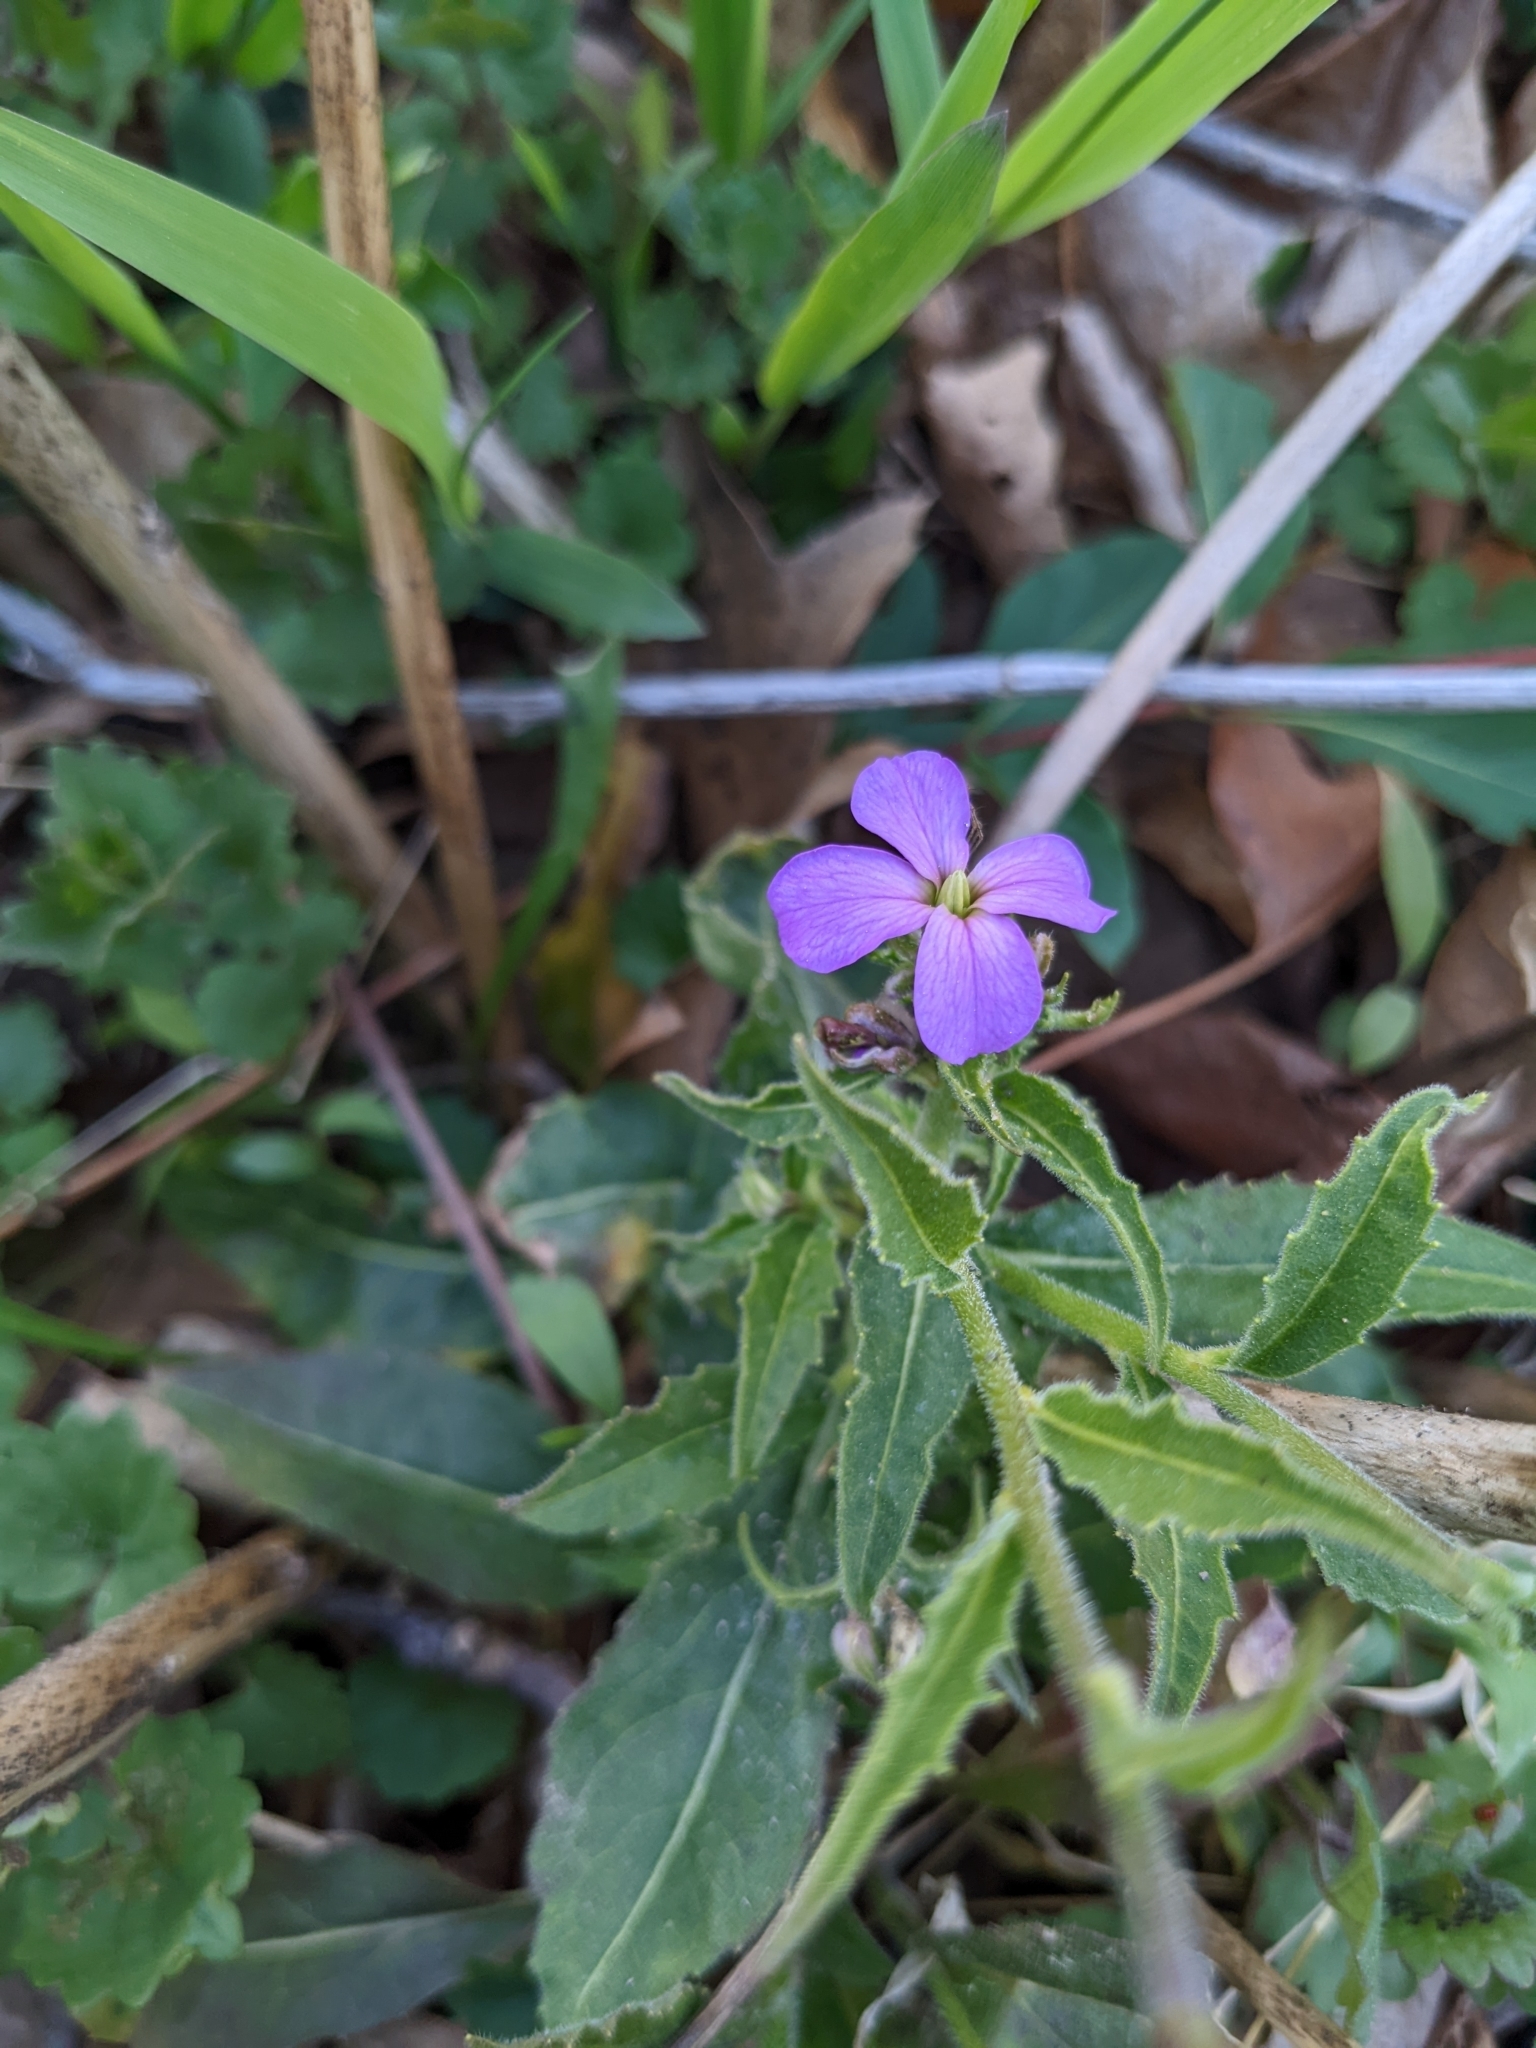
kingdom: Plantae
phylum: Tracheophyta
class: Magnoliopsida
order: Brassicales
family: Brassicaceae
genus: Hesperis
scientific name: Hesperis matronalis
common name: Dame's-violet
